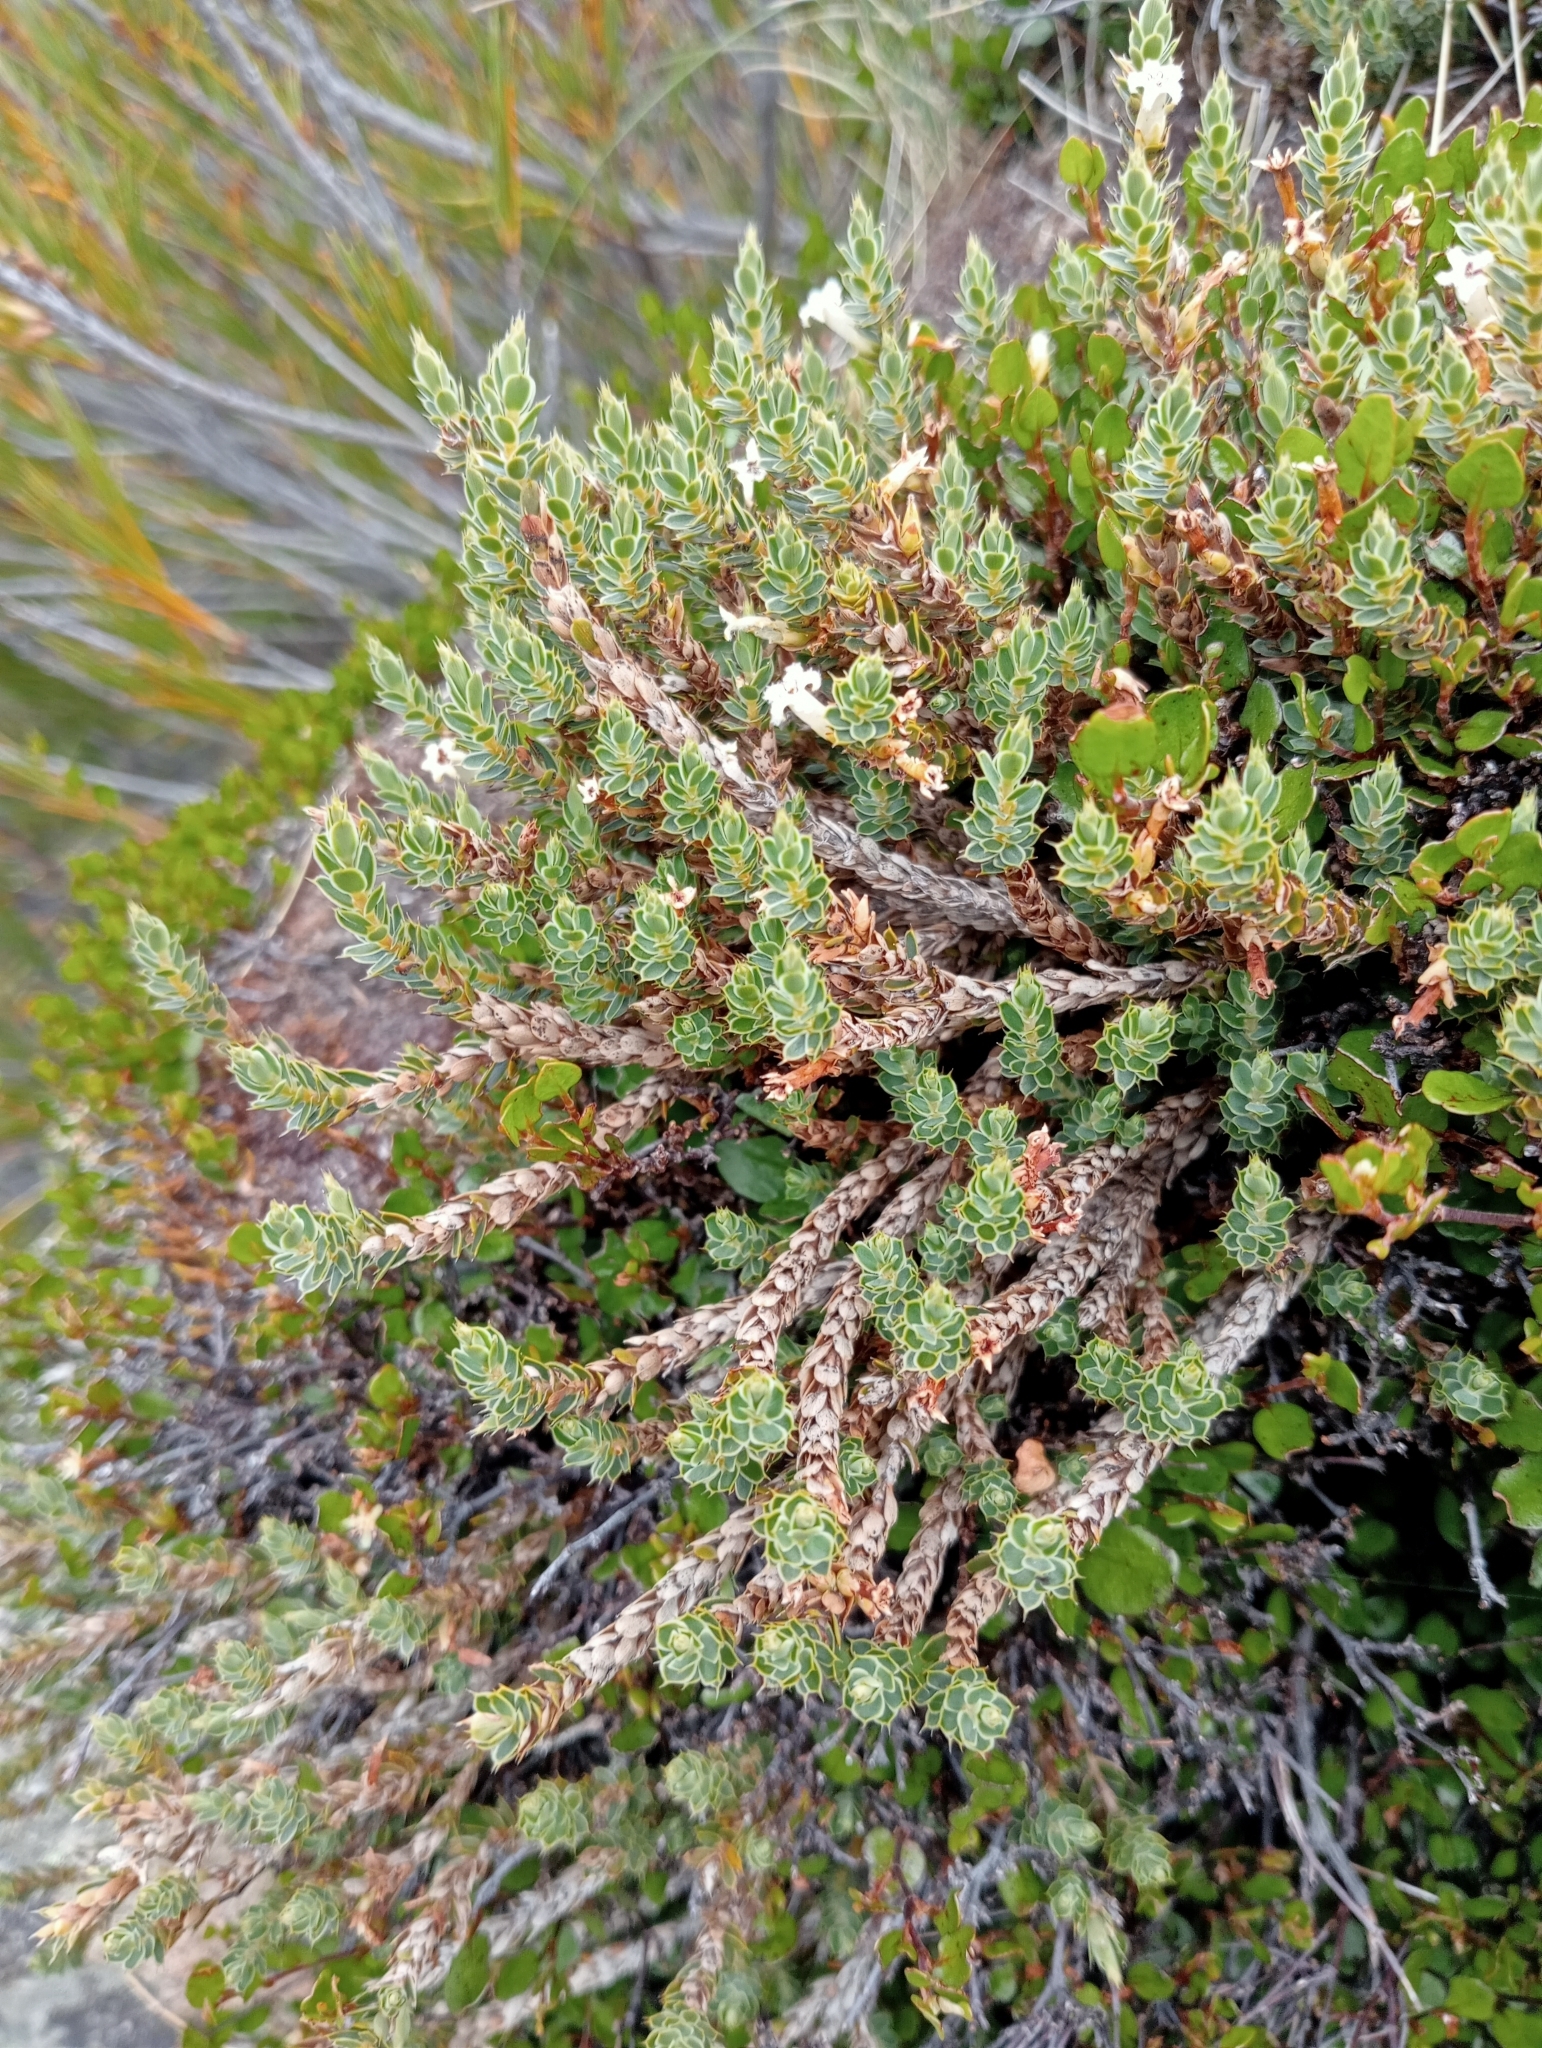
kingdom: Plantae
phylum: Tracheophyta
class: Magnoliopsida
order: Ericales
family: Ericaceae
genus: Styphelia
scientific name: Styphelia nesophila
